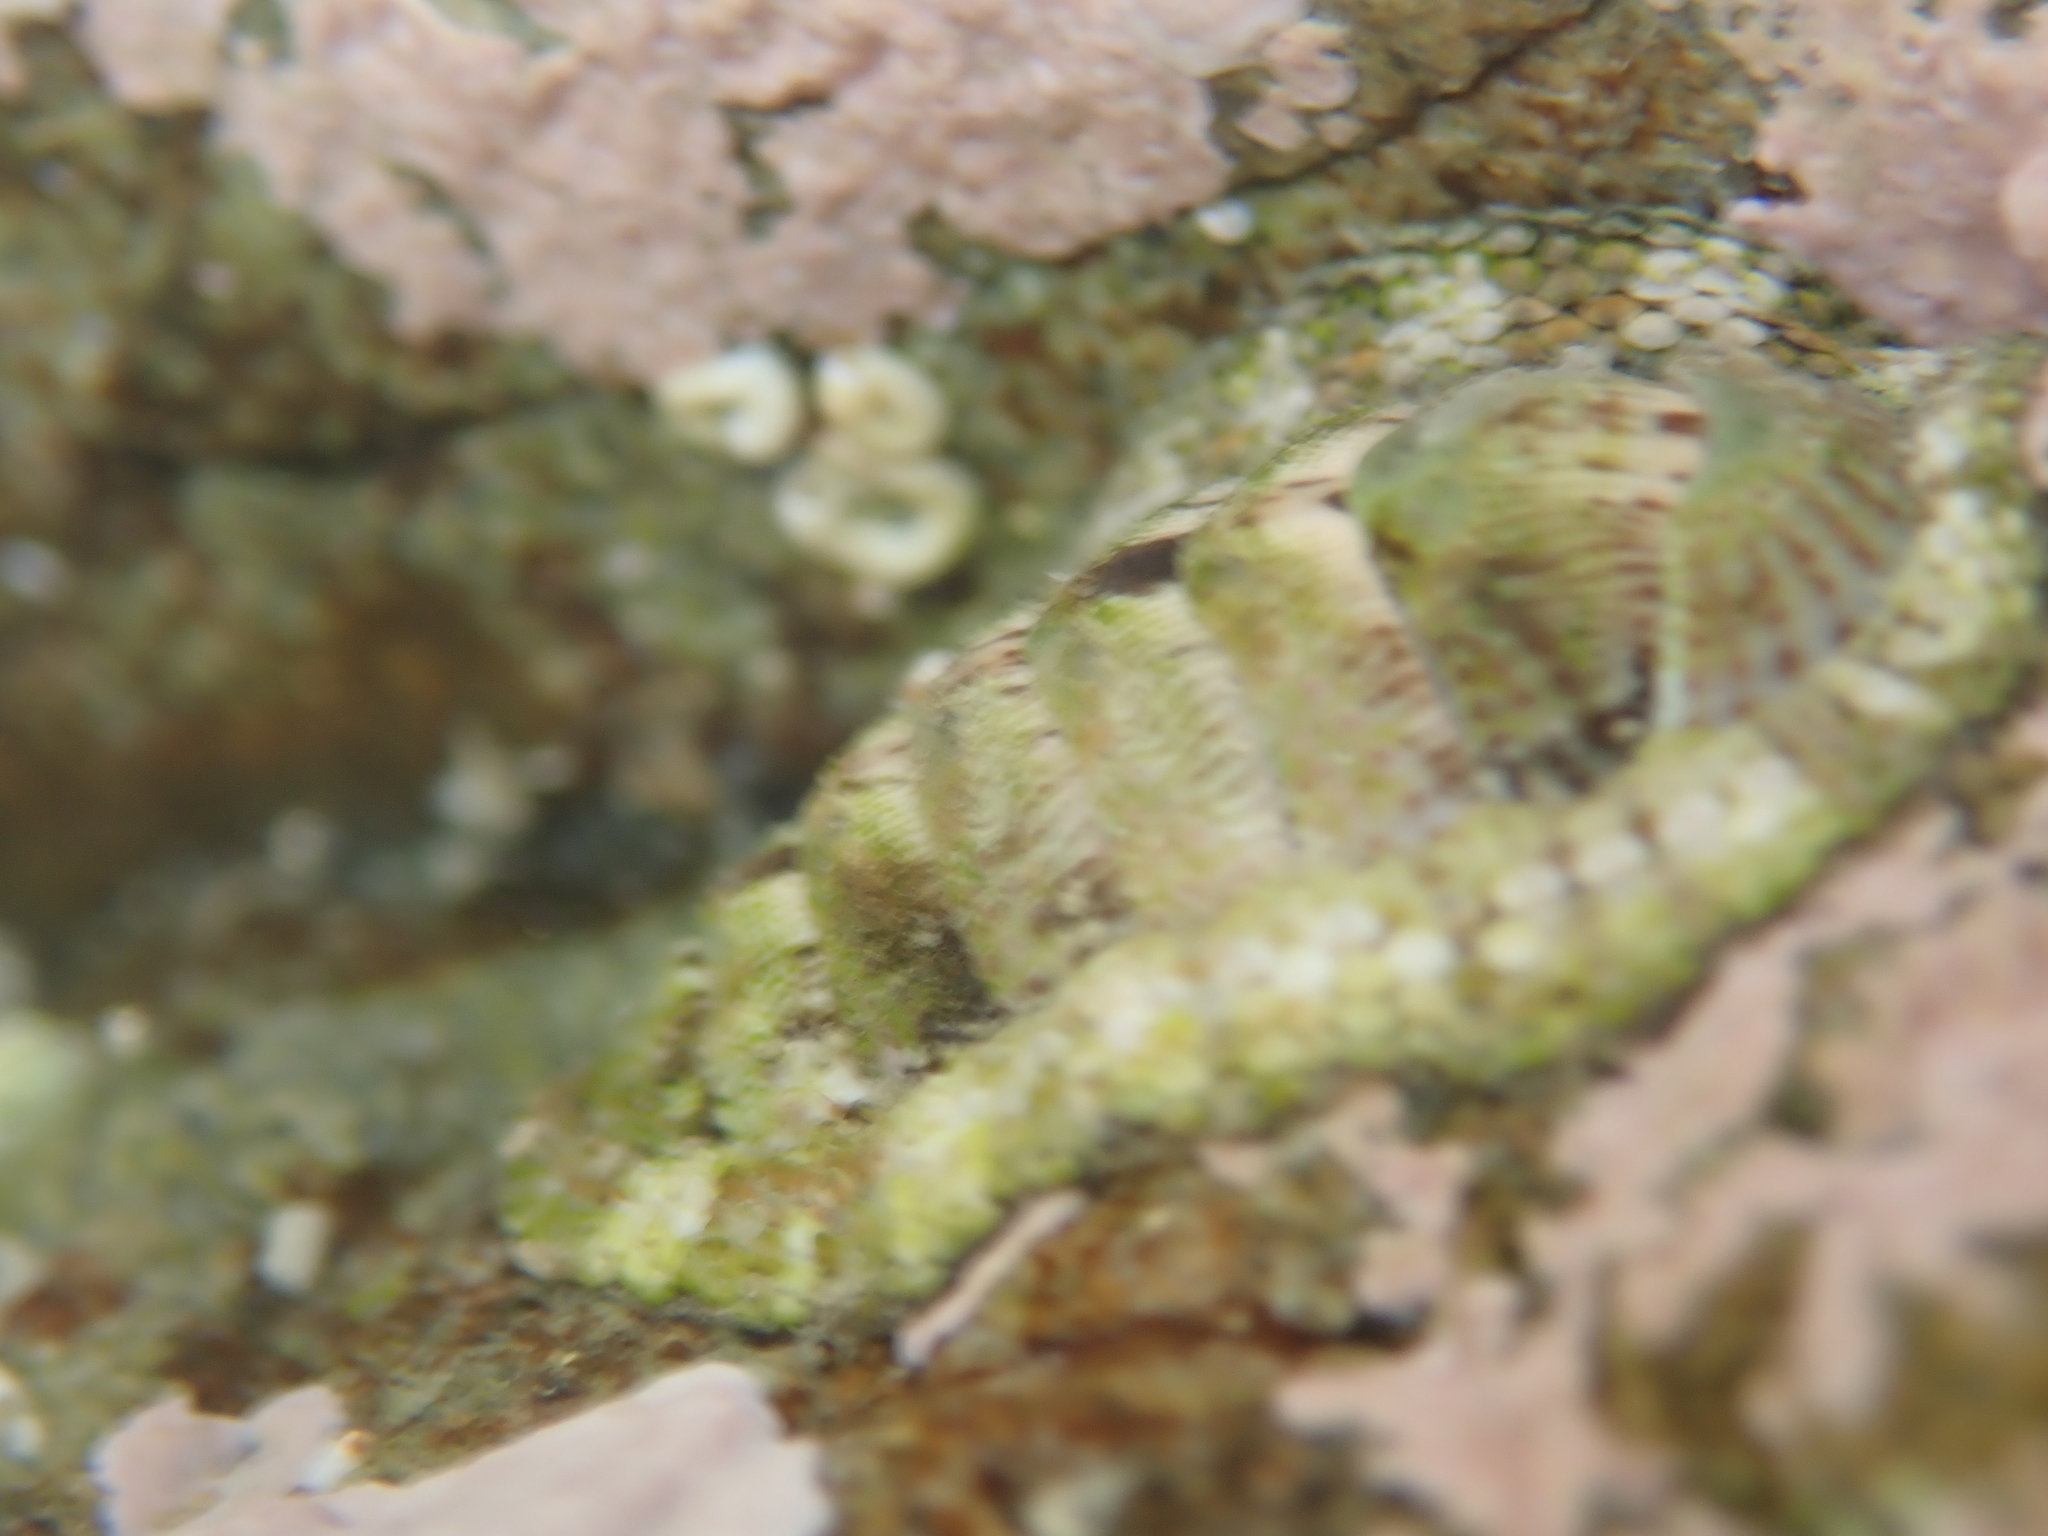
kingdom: Animalia
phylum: Mollusca
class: Polyplacophora
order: Chitonida
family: Chitonidae
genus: Sypharochiton
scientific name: Sypharochiton pelliserpentis
